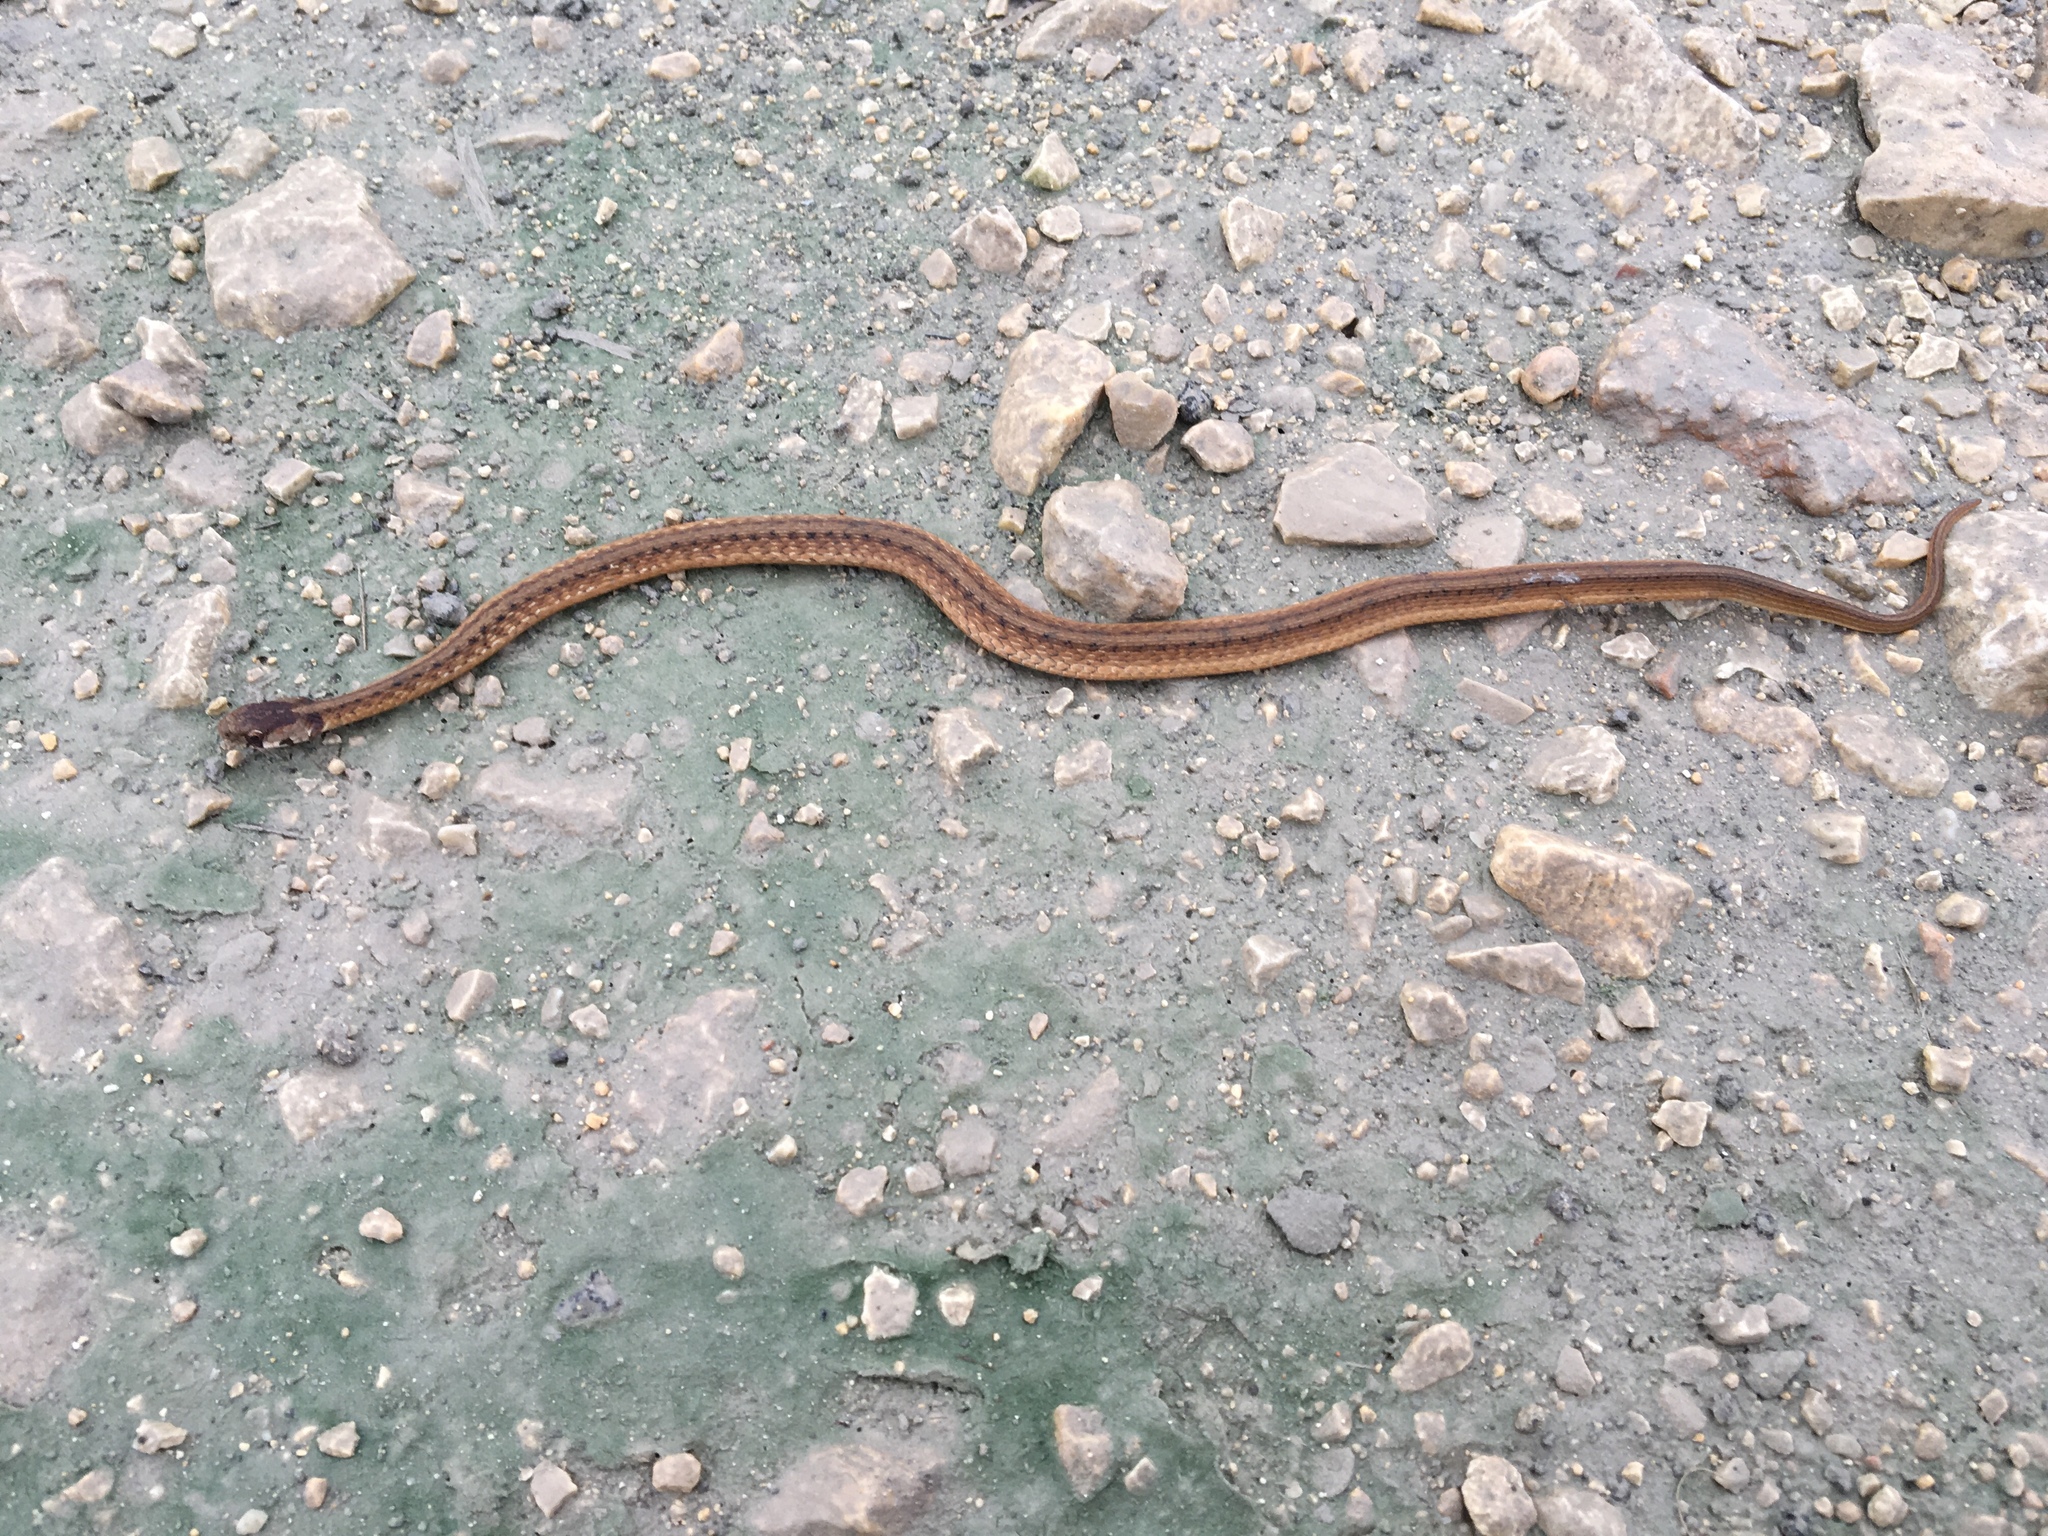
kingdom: Animalia
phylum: Chordata
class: Squamata
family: Colubridae
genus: Storeria
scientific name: Storeria dekayi
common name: (dekay’s) brown snake
